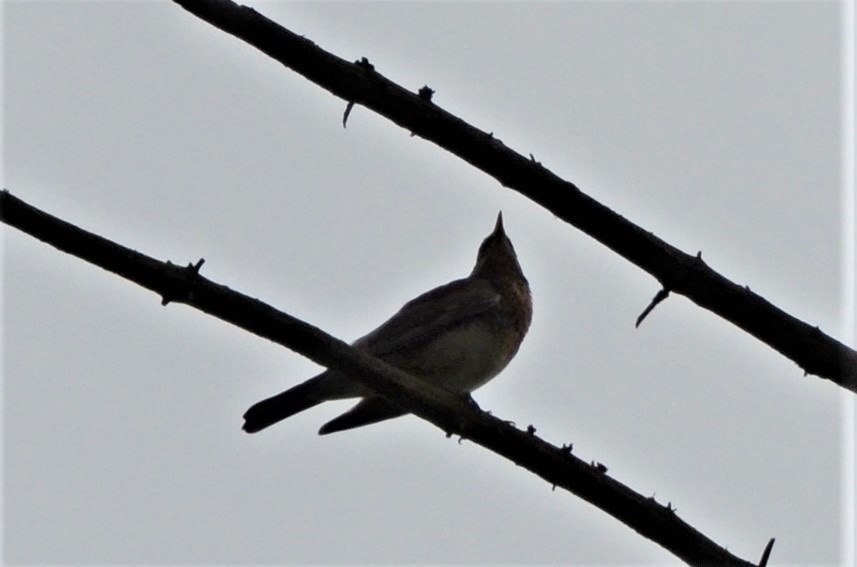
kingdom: Animalia
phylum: Chordata
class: Aves
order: Passeriformes
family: Turdidae
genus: Turdus
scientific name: Turdus pilaris
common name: Fieldfare
